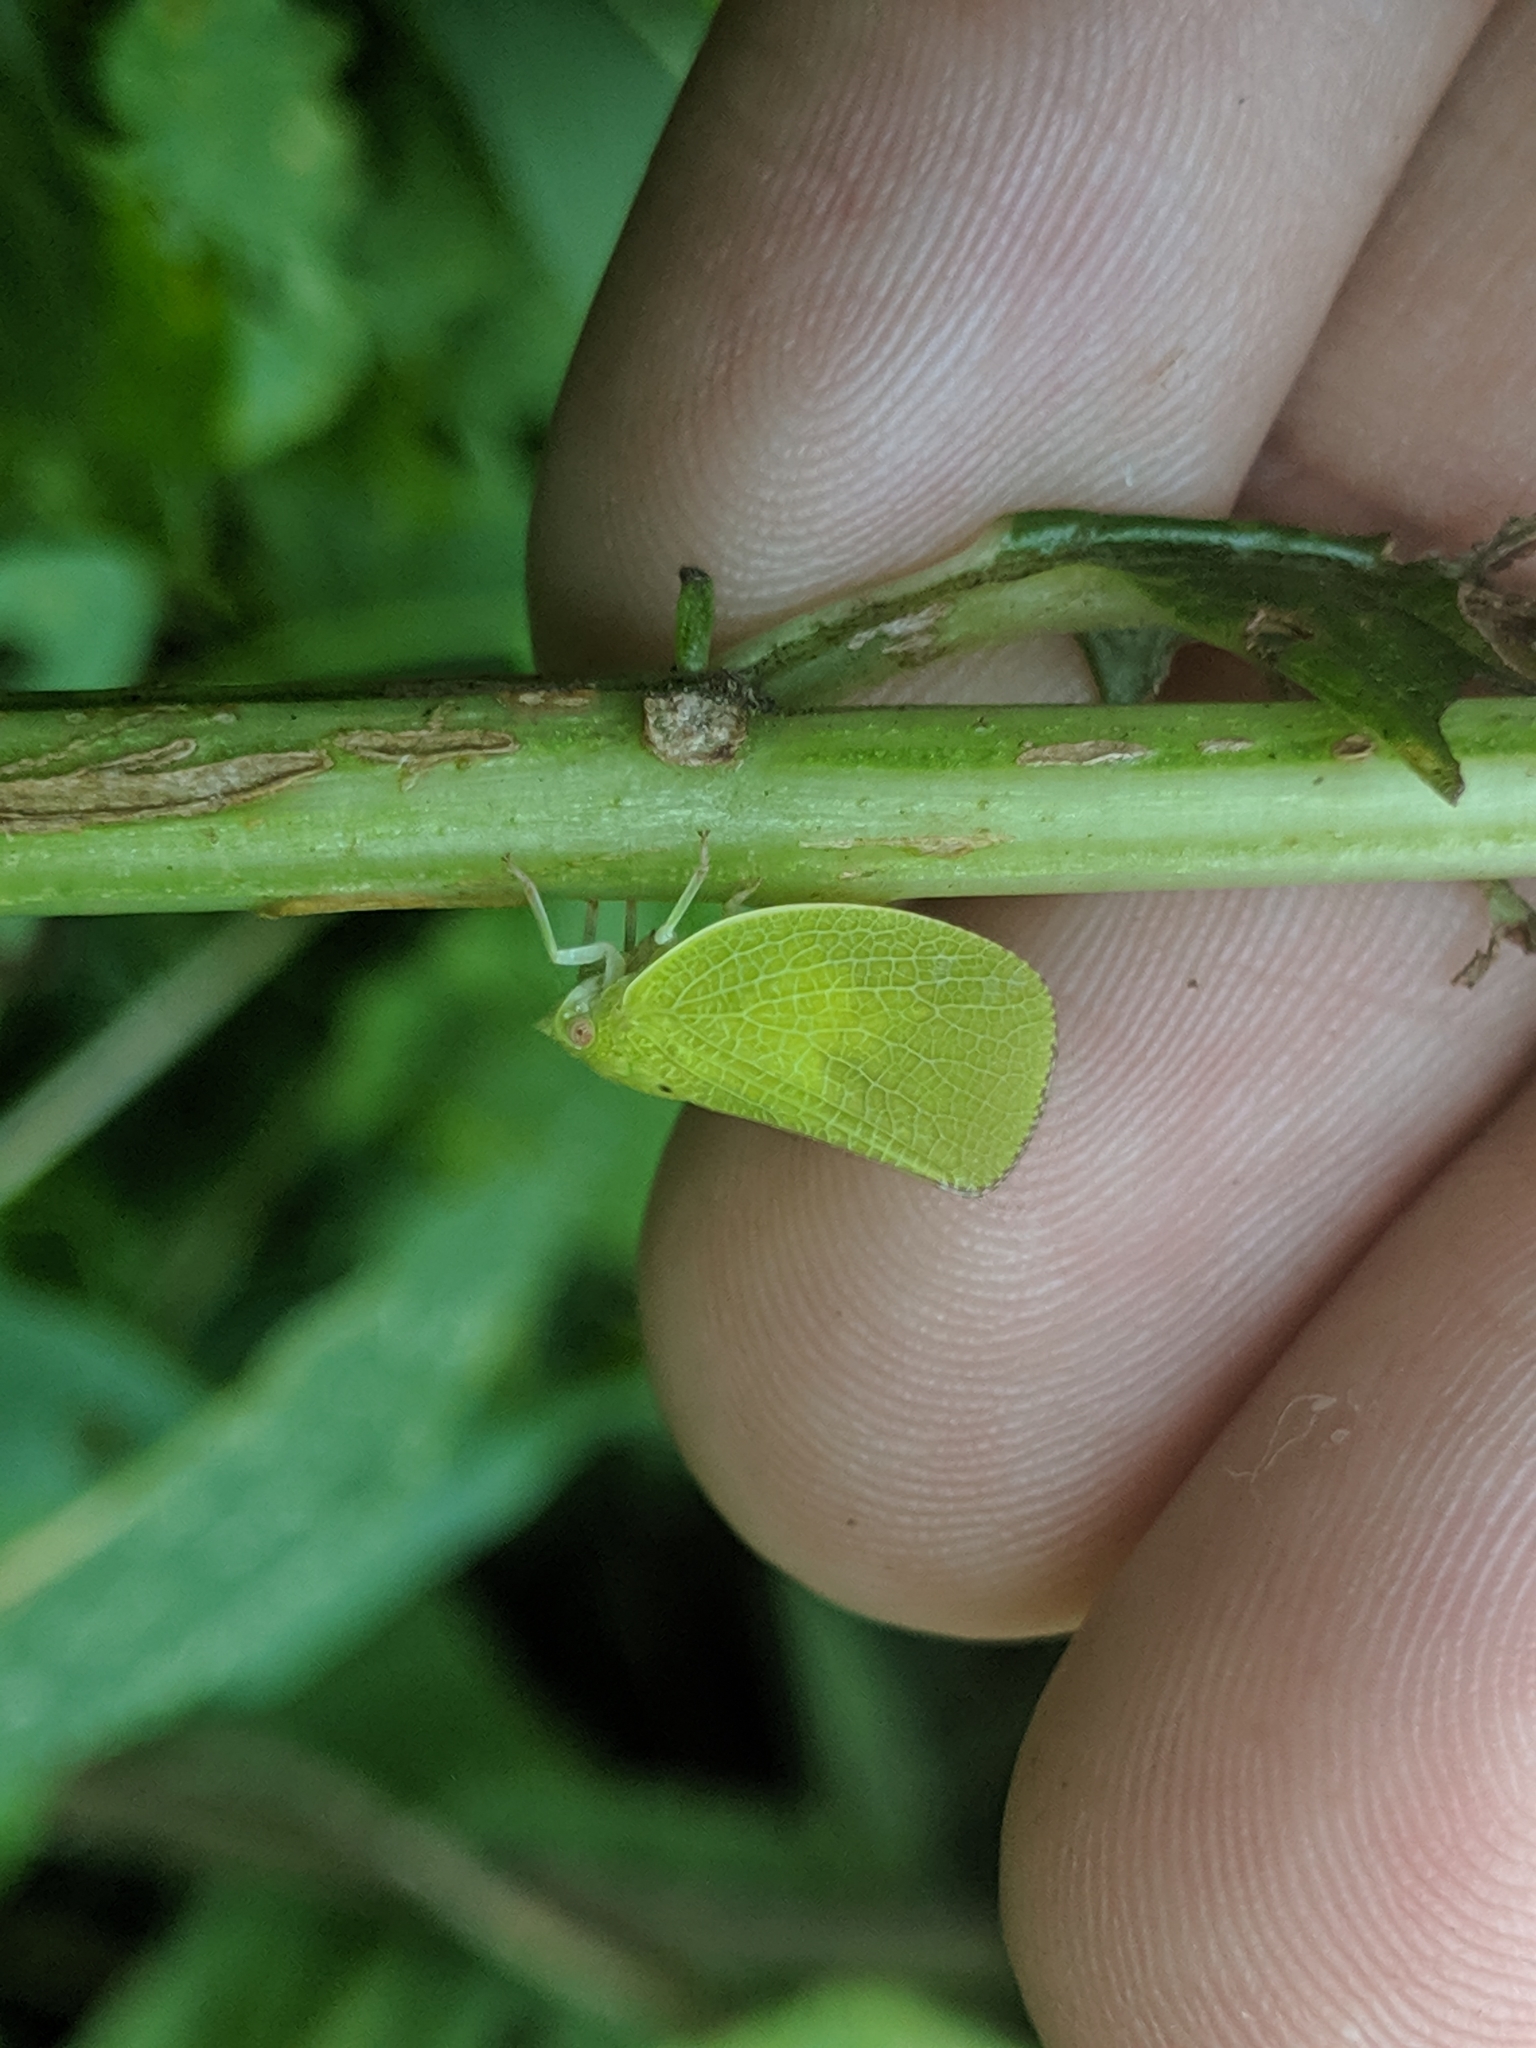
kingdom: Animalia
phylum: Arthropoda
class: Insecta
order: Hemiptera
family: Acanaloniidae
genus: Acanalonia
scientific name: Acanalonia conica
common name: Green cone-headed planthopper
